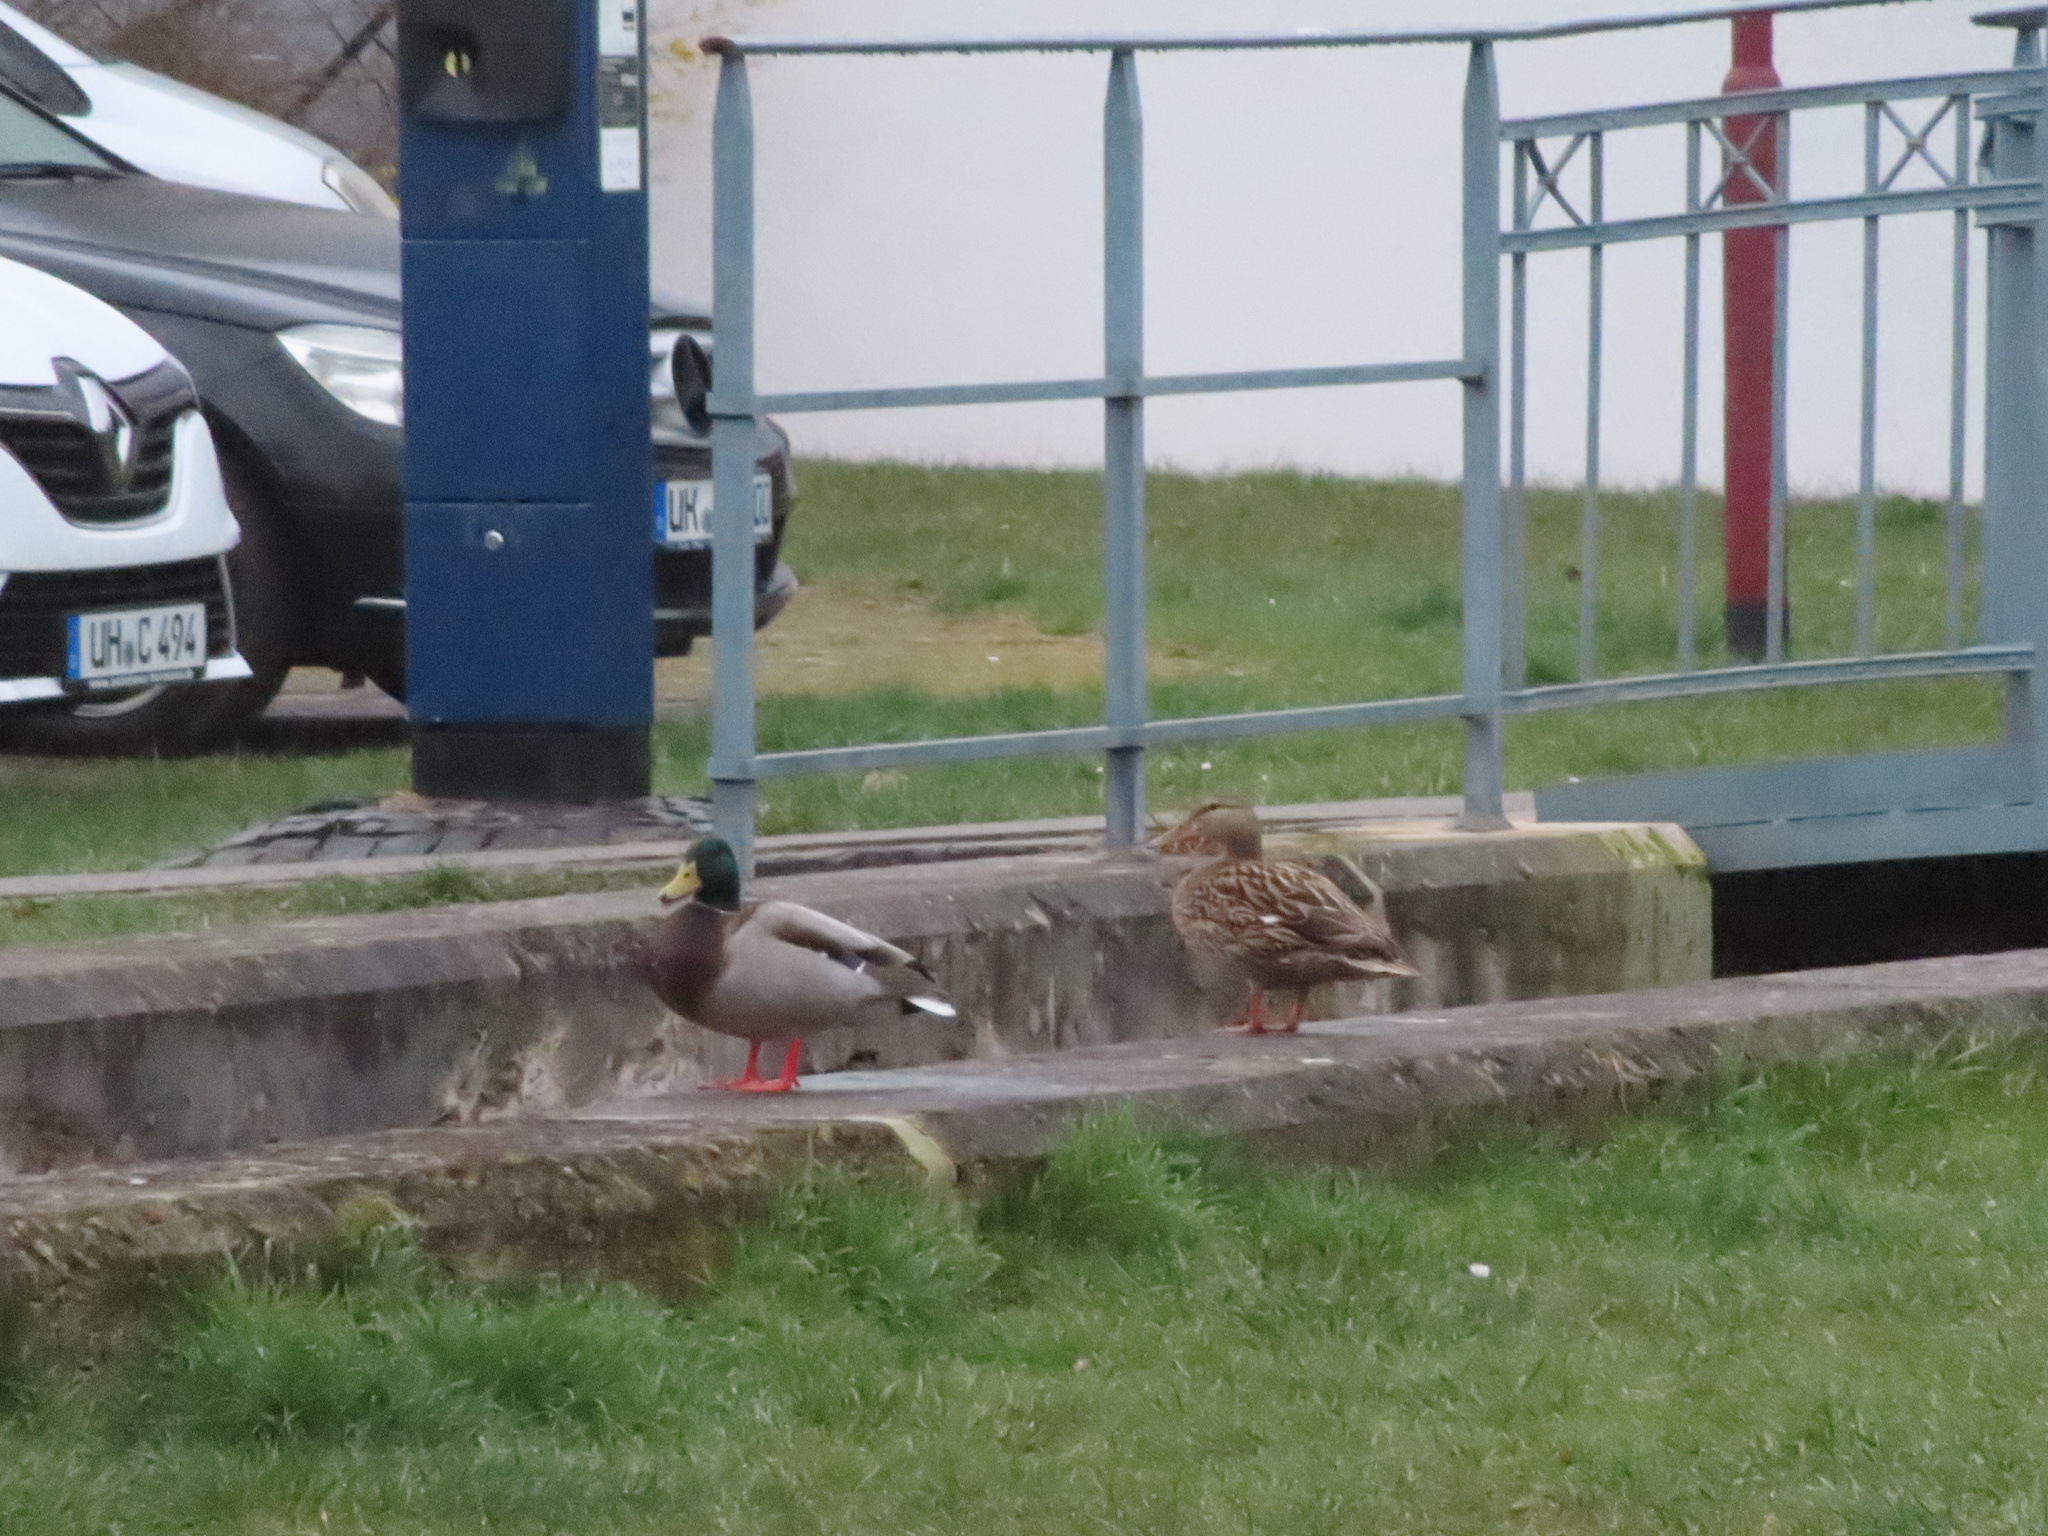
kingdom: Animalia
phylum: Chordata
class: Aves
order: Anseriformes
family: Anatidae
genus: Anas
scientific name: Anas platyrhynchos
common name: Mallard
